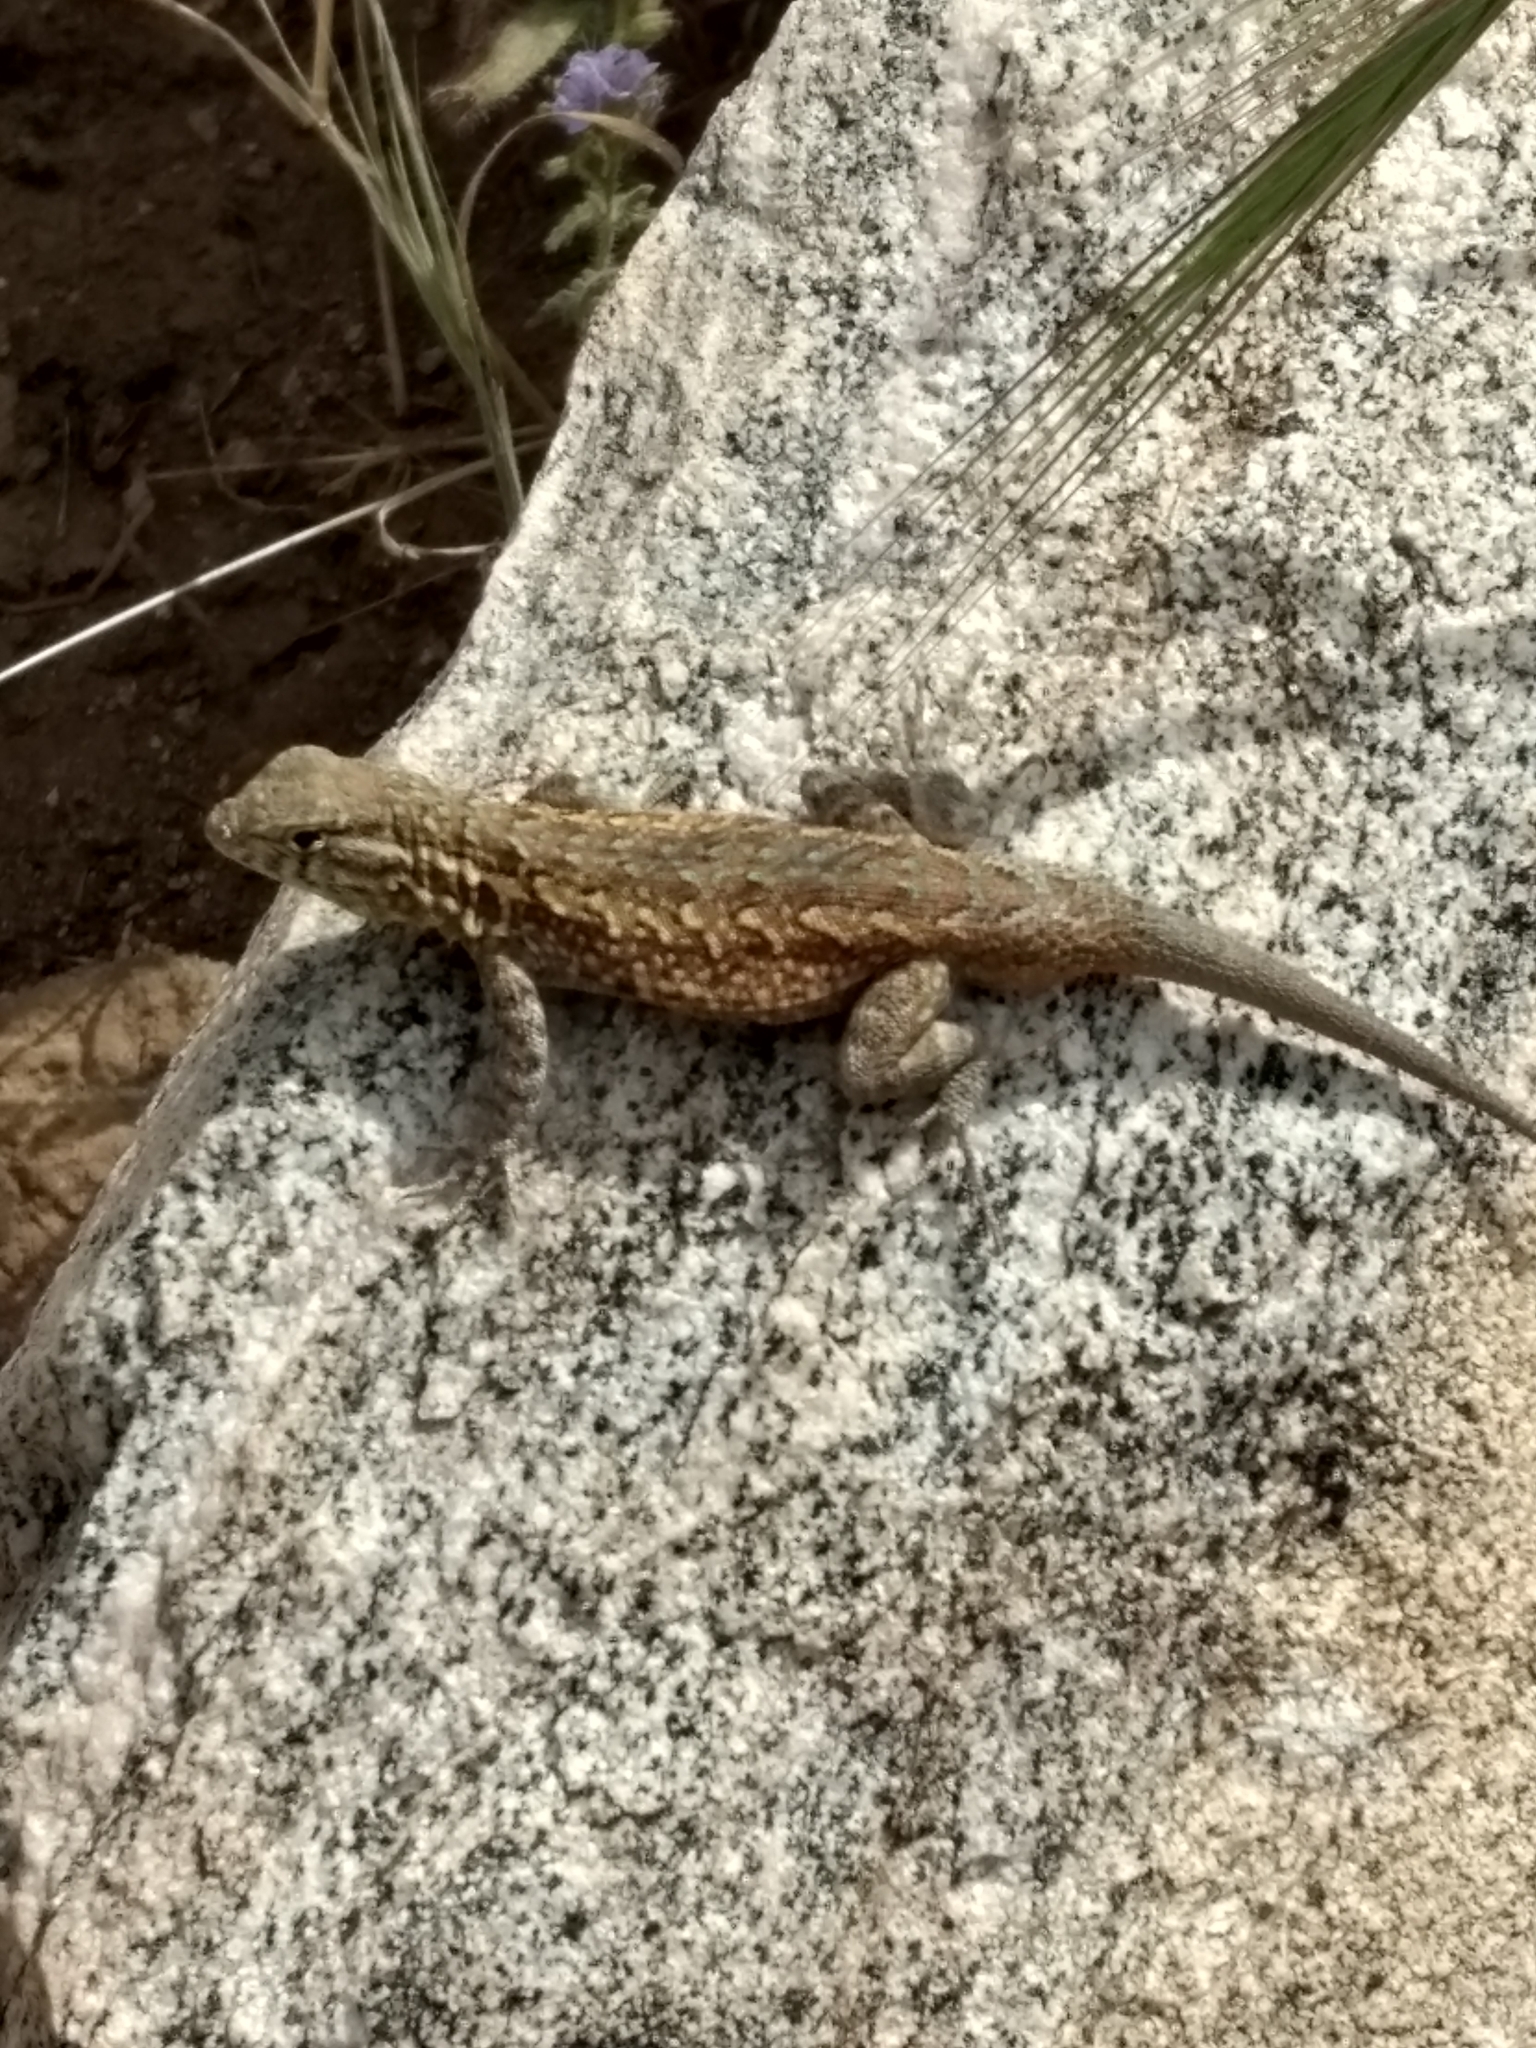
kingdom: Animalia
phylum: Chordata
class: Squamata
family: Phrynosomatidae
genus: Uta
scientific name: Uta stansburiana
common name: Side-blotched lizard
